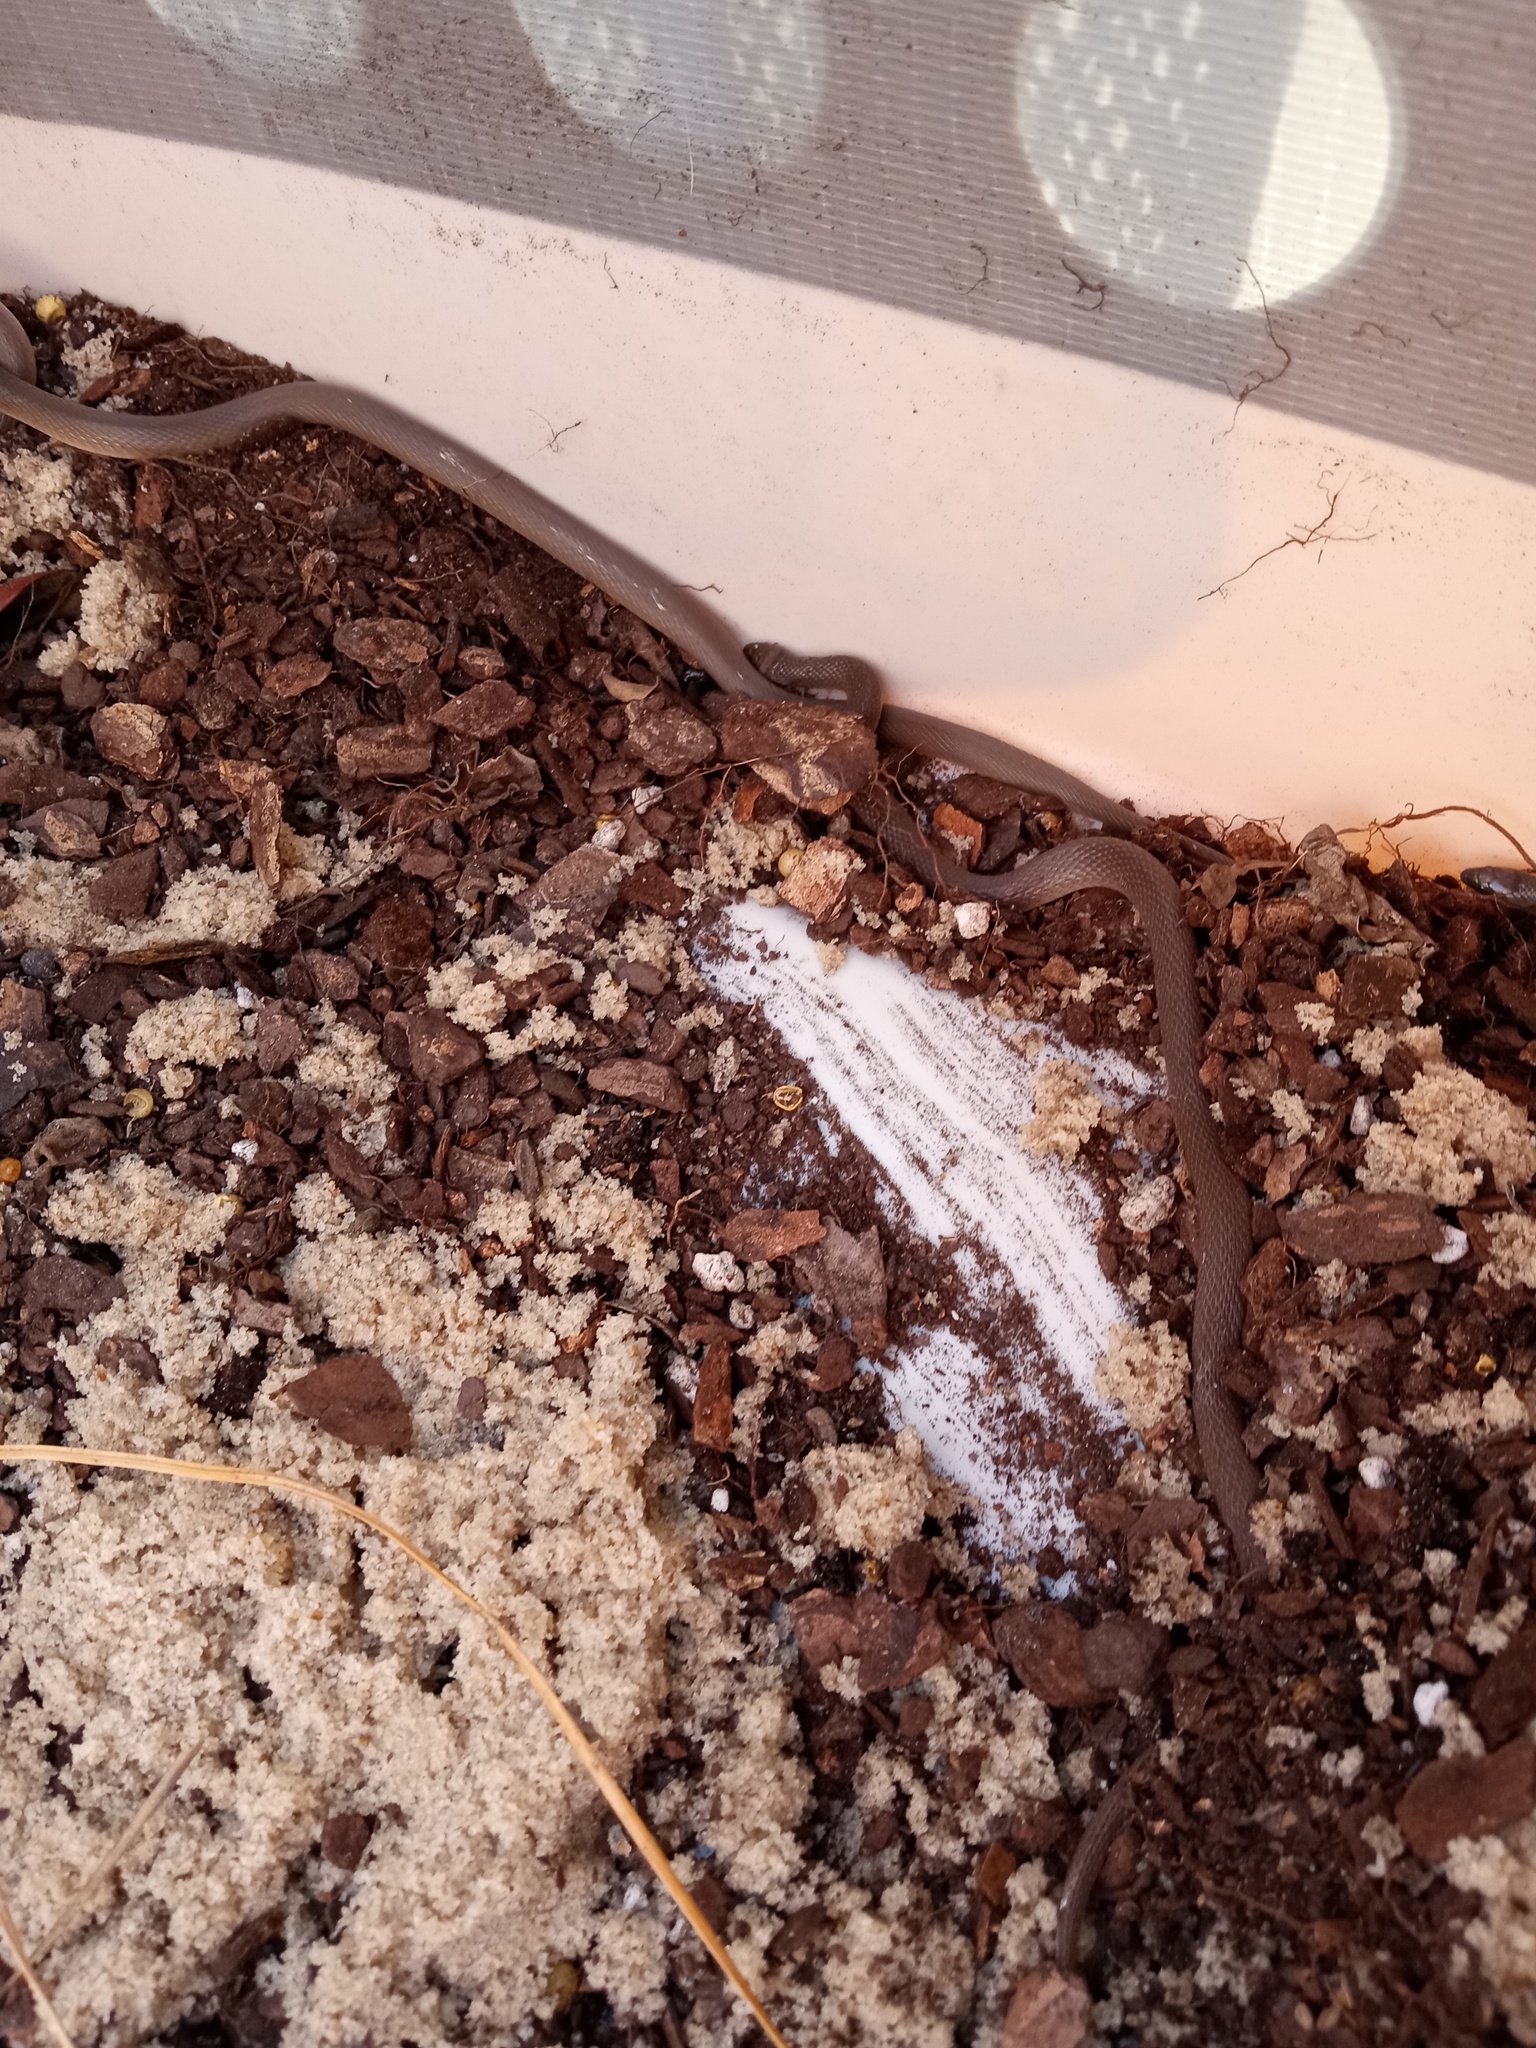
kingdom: Animalia
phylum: Chordata
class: Squamata
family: Colubridae
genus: Haldea
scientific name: Haldea striatula
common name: Rough earth snake
